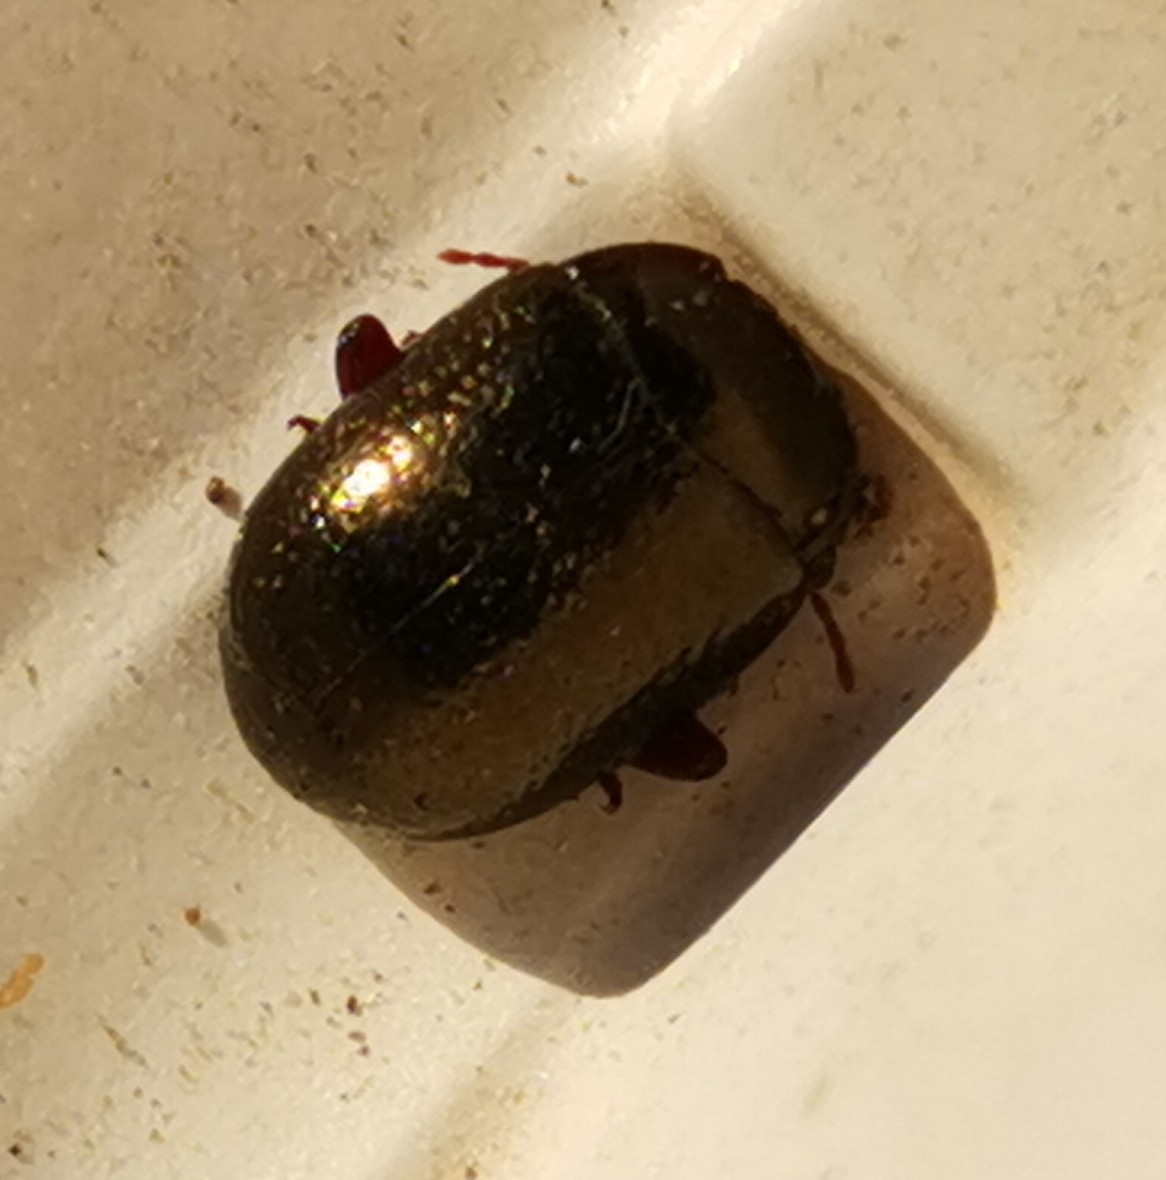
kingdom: Animalia
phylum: Arthropoda
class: Insecta
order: Coleoptera
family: Chrysomelidae
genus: Chrysolina
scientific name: Chrysolina bankii
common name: Leaf beetle
